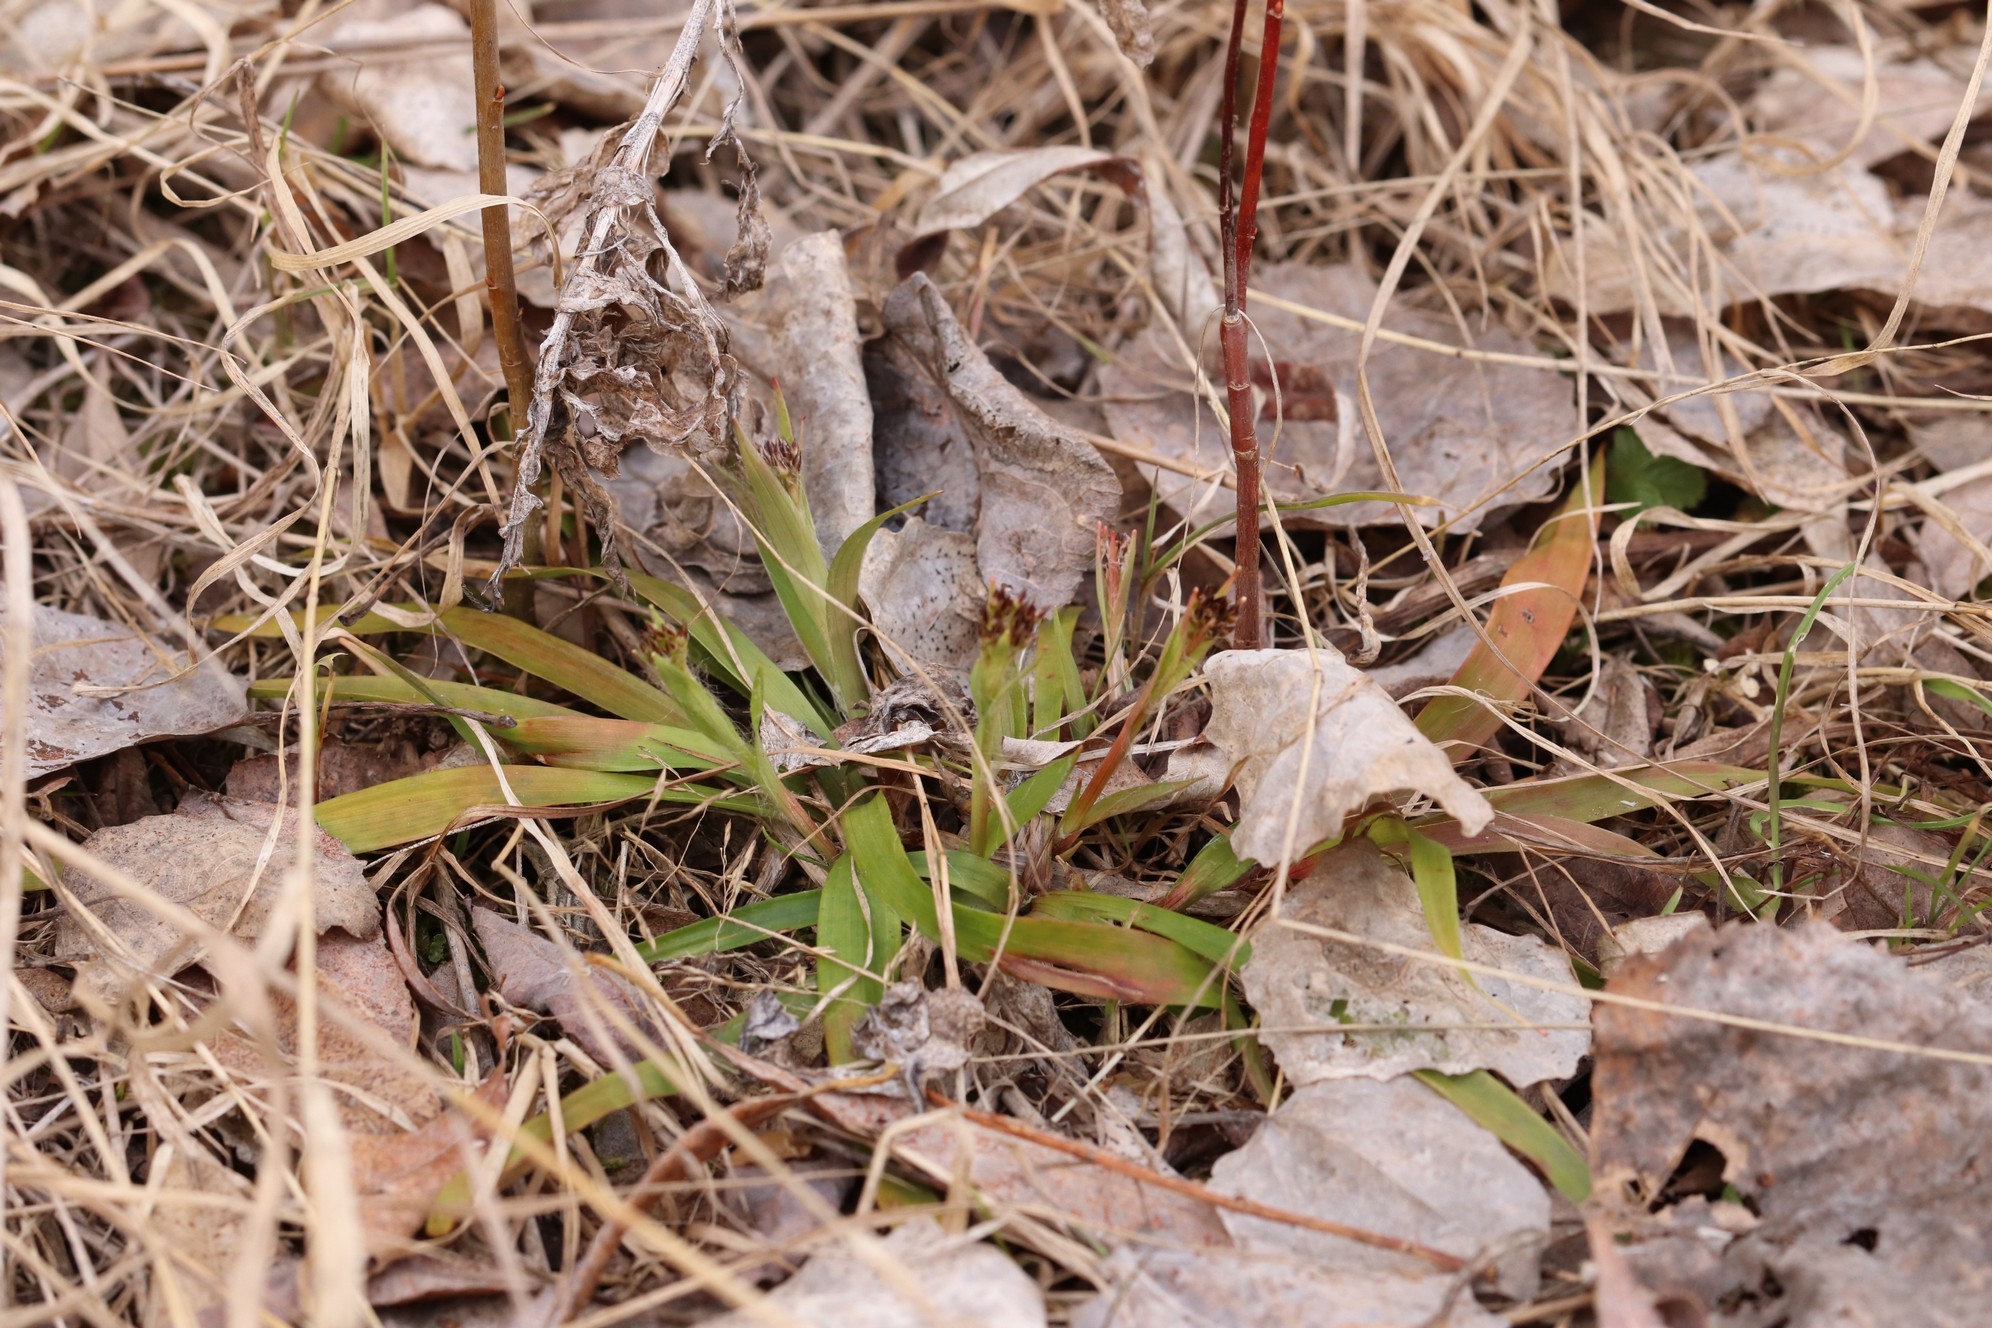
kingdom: Plantae
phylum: Tracheophyta
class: Liliopsida
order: Poales
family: Juncaceae
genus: Luzula
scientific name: Luzula pilosa
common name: Hairy wood-rush
